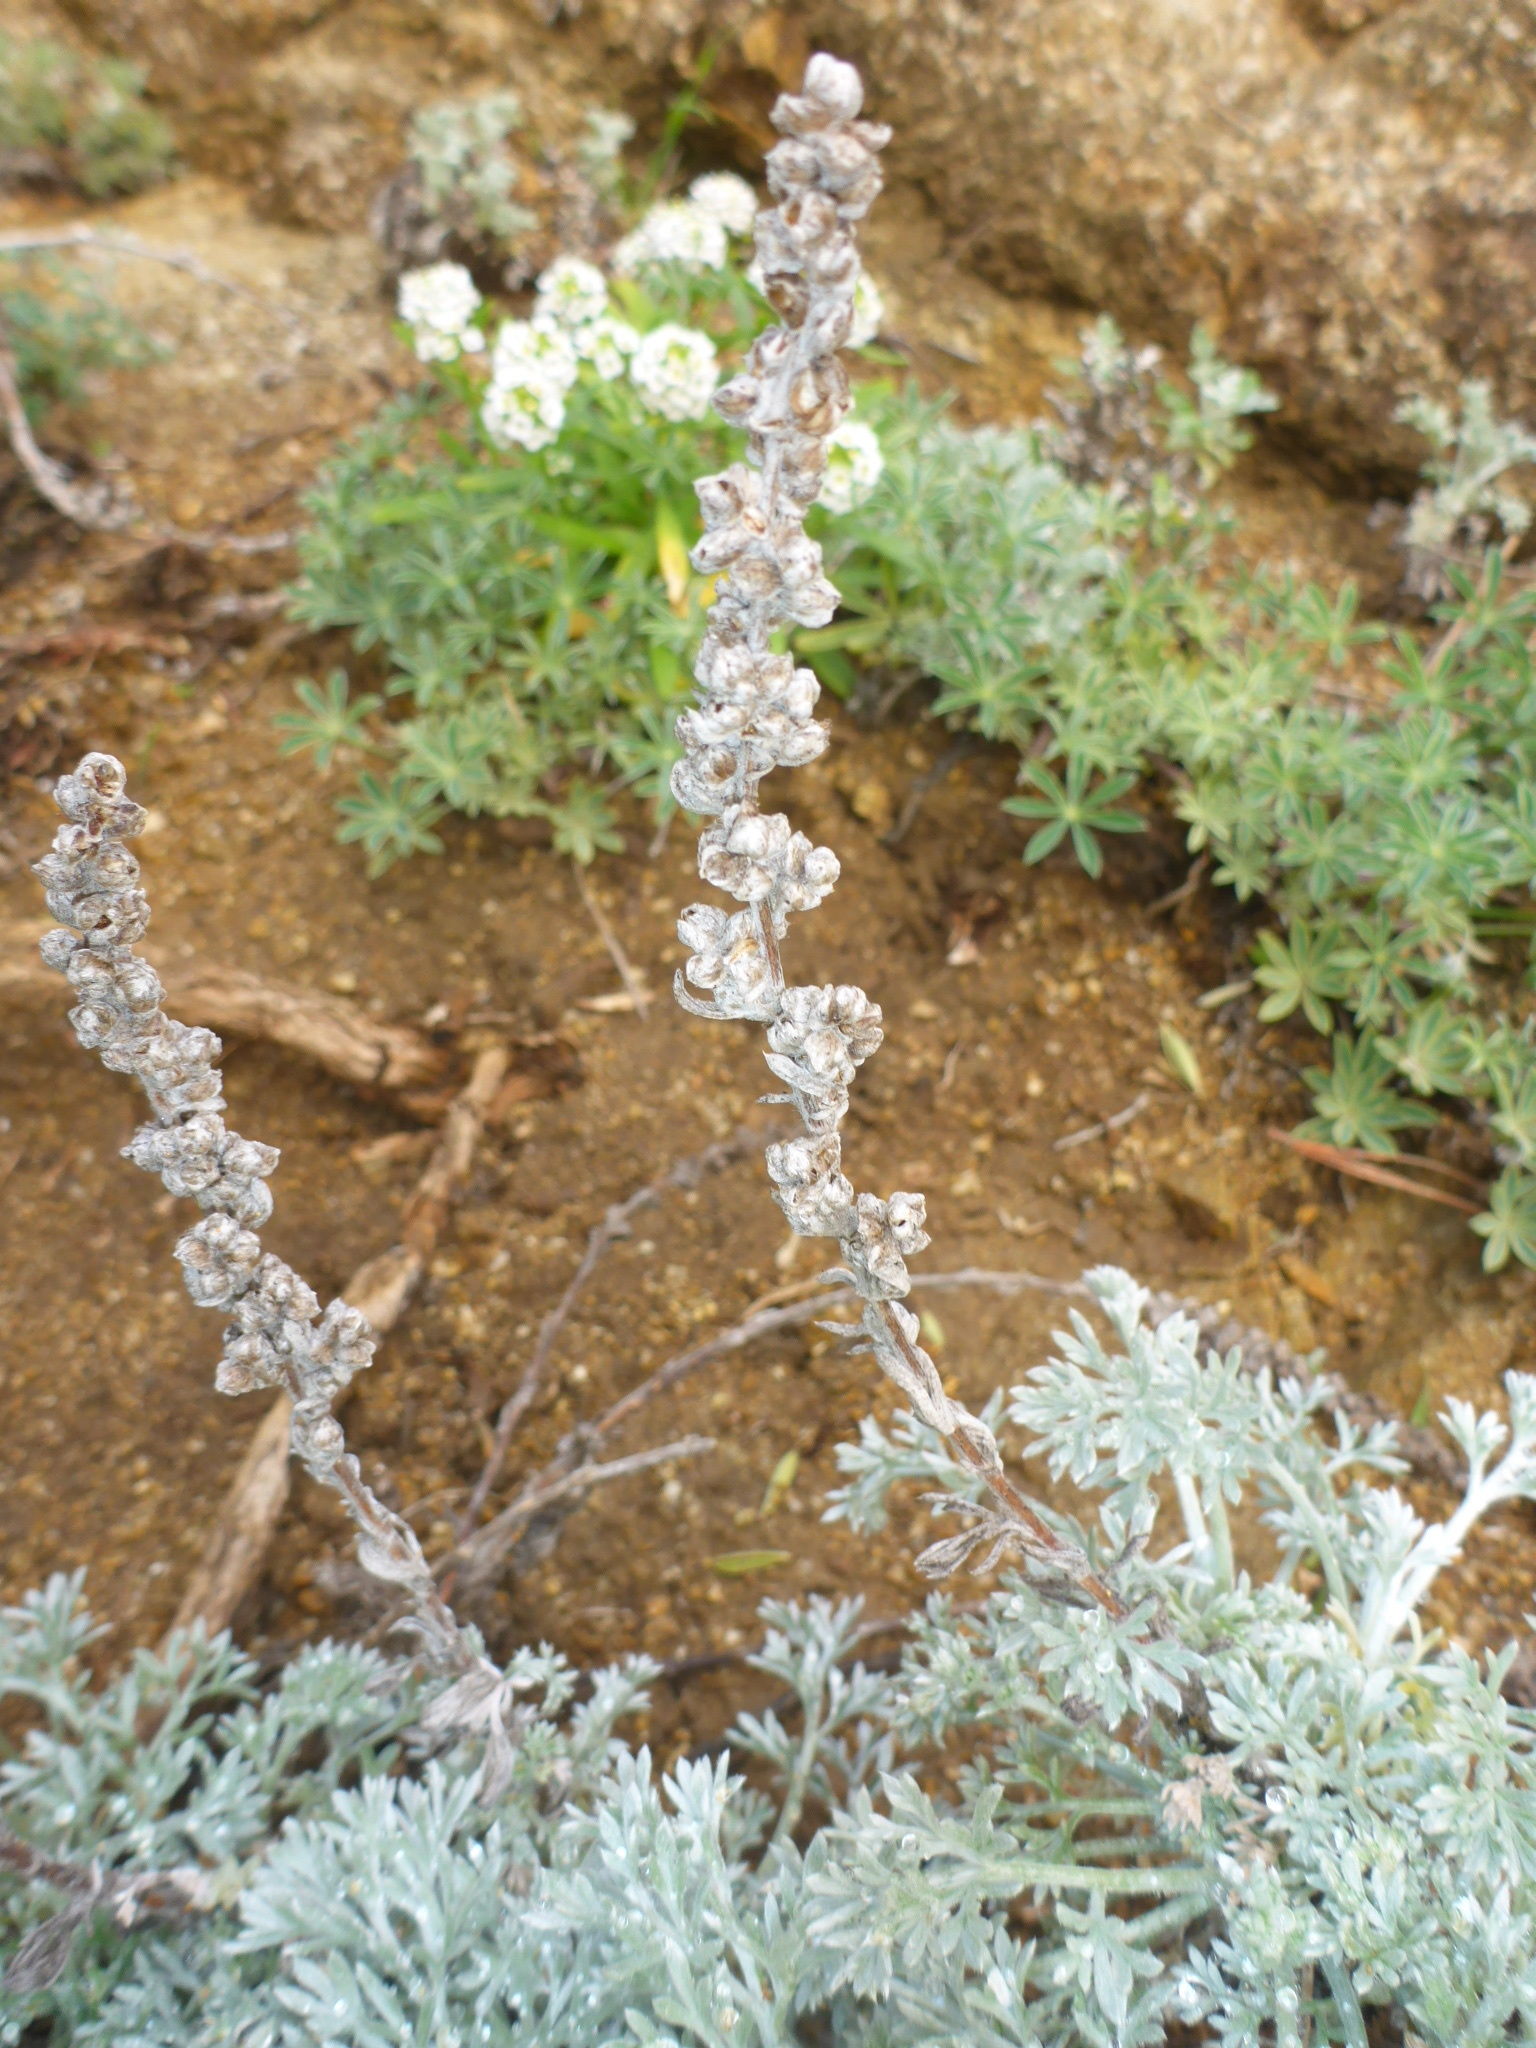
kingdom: Plantae
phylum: Tracheophyta
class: Magnoliopsida
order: Asterales
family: Asteraceae
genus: Artemisia
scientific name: Artemisia pycnocephala
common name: Coastal sagewort
